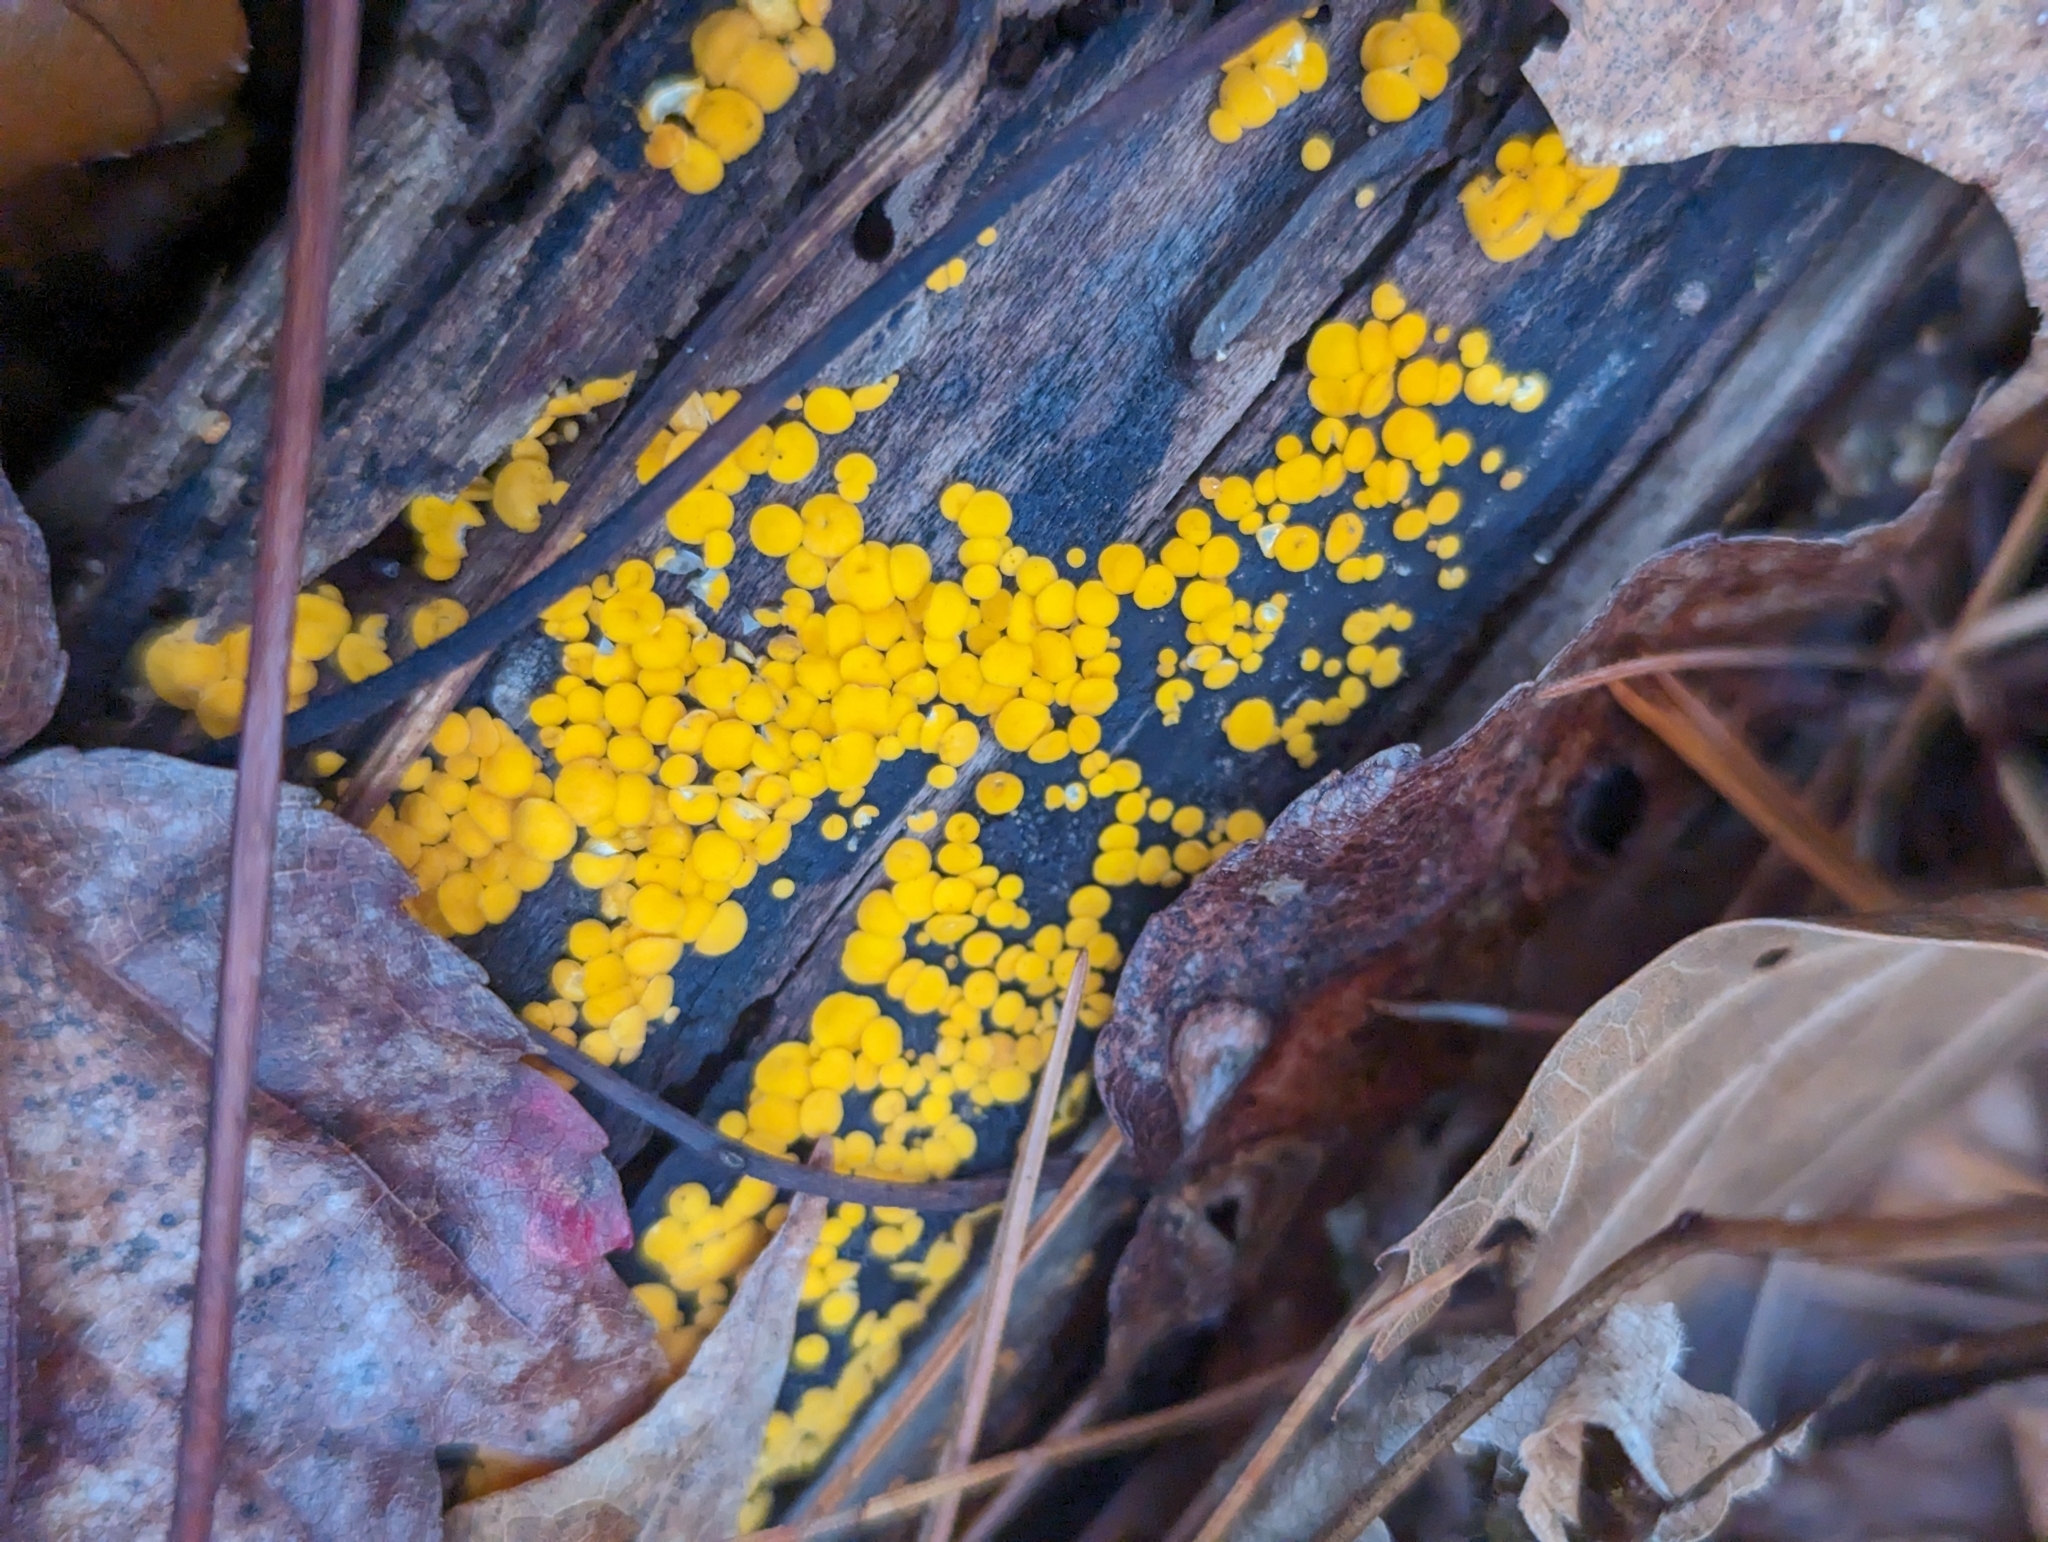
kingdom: Fungi
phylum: Ascomycota
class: Leotiomycetes
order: Helotiales
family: Pezizellaceae
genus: Calycina
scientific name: Calycina citrina
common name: Yellow fairy cups
